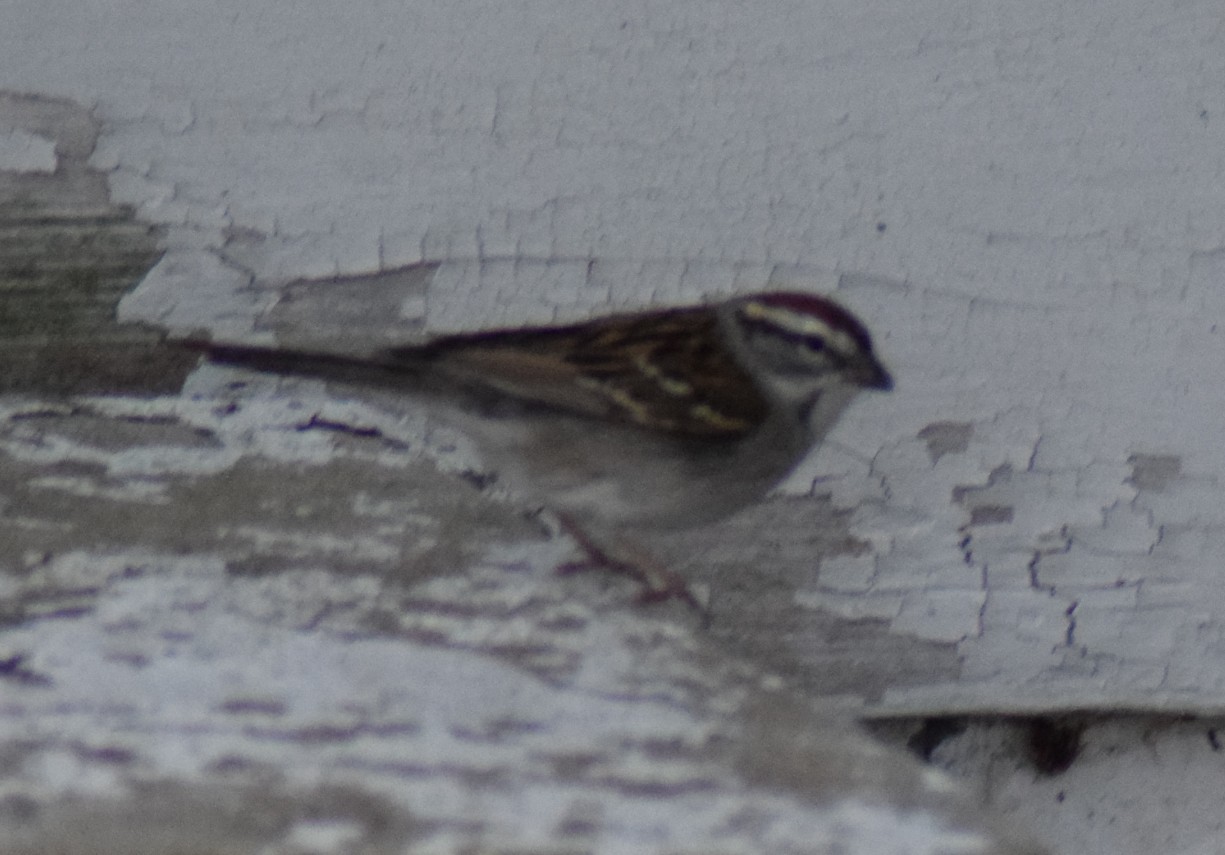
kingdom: Animalia
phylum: Chordata
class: Aves
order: Passeriformes
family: Passerellidae
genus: Spizella
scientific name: Spizella passerina
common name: Chipping sparrow
